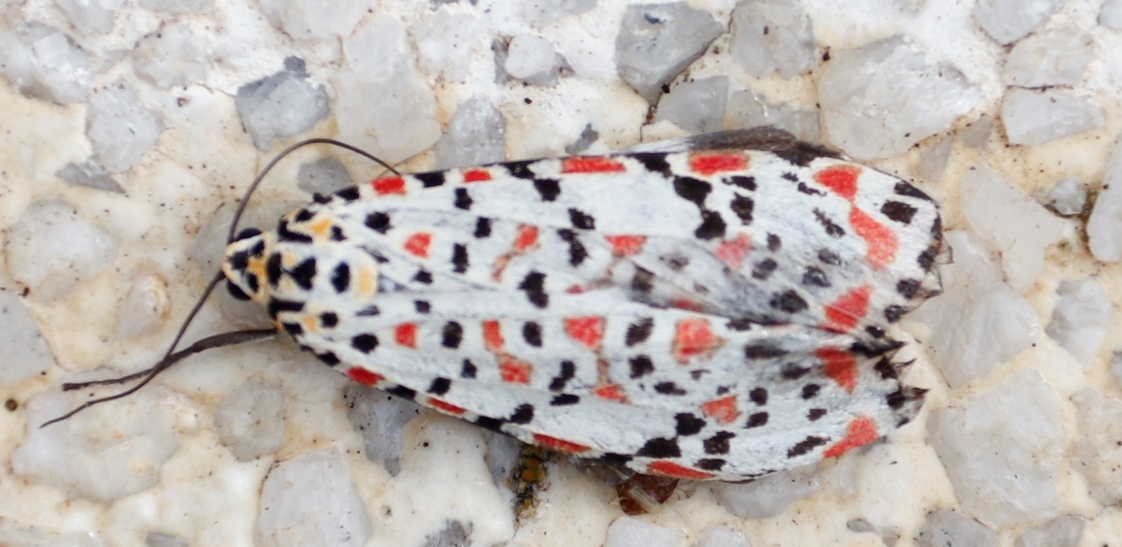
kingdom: Animalia
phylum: Arthropoda
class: Insecta
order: Lepidoptera
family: Erebidae
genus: Utetheisa
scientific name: Utetheisa pulchella
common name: Crimson speckled
